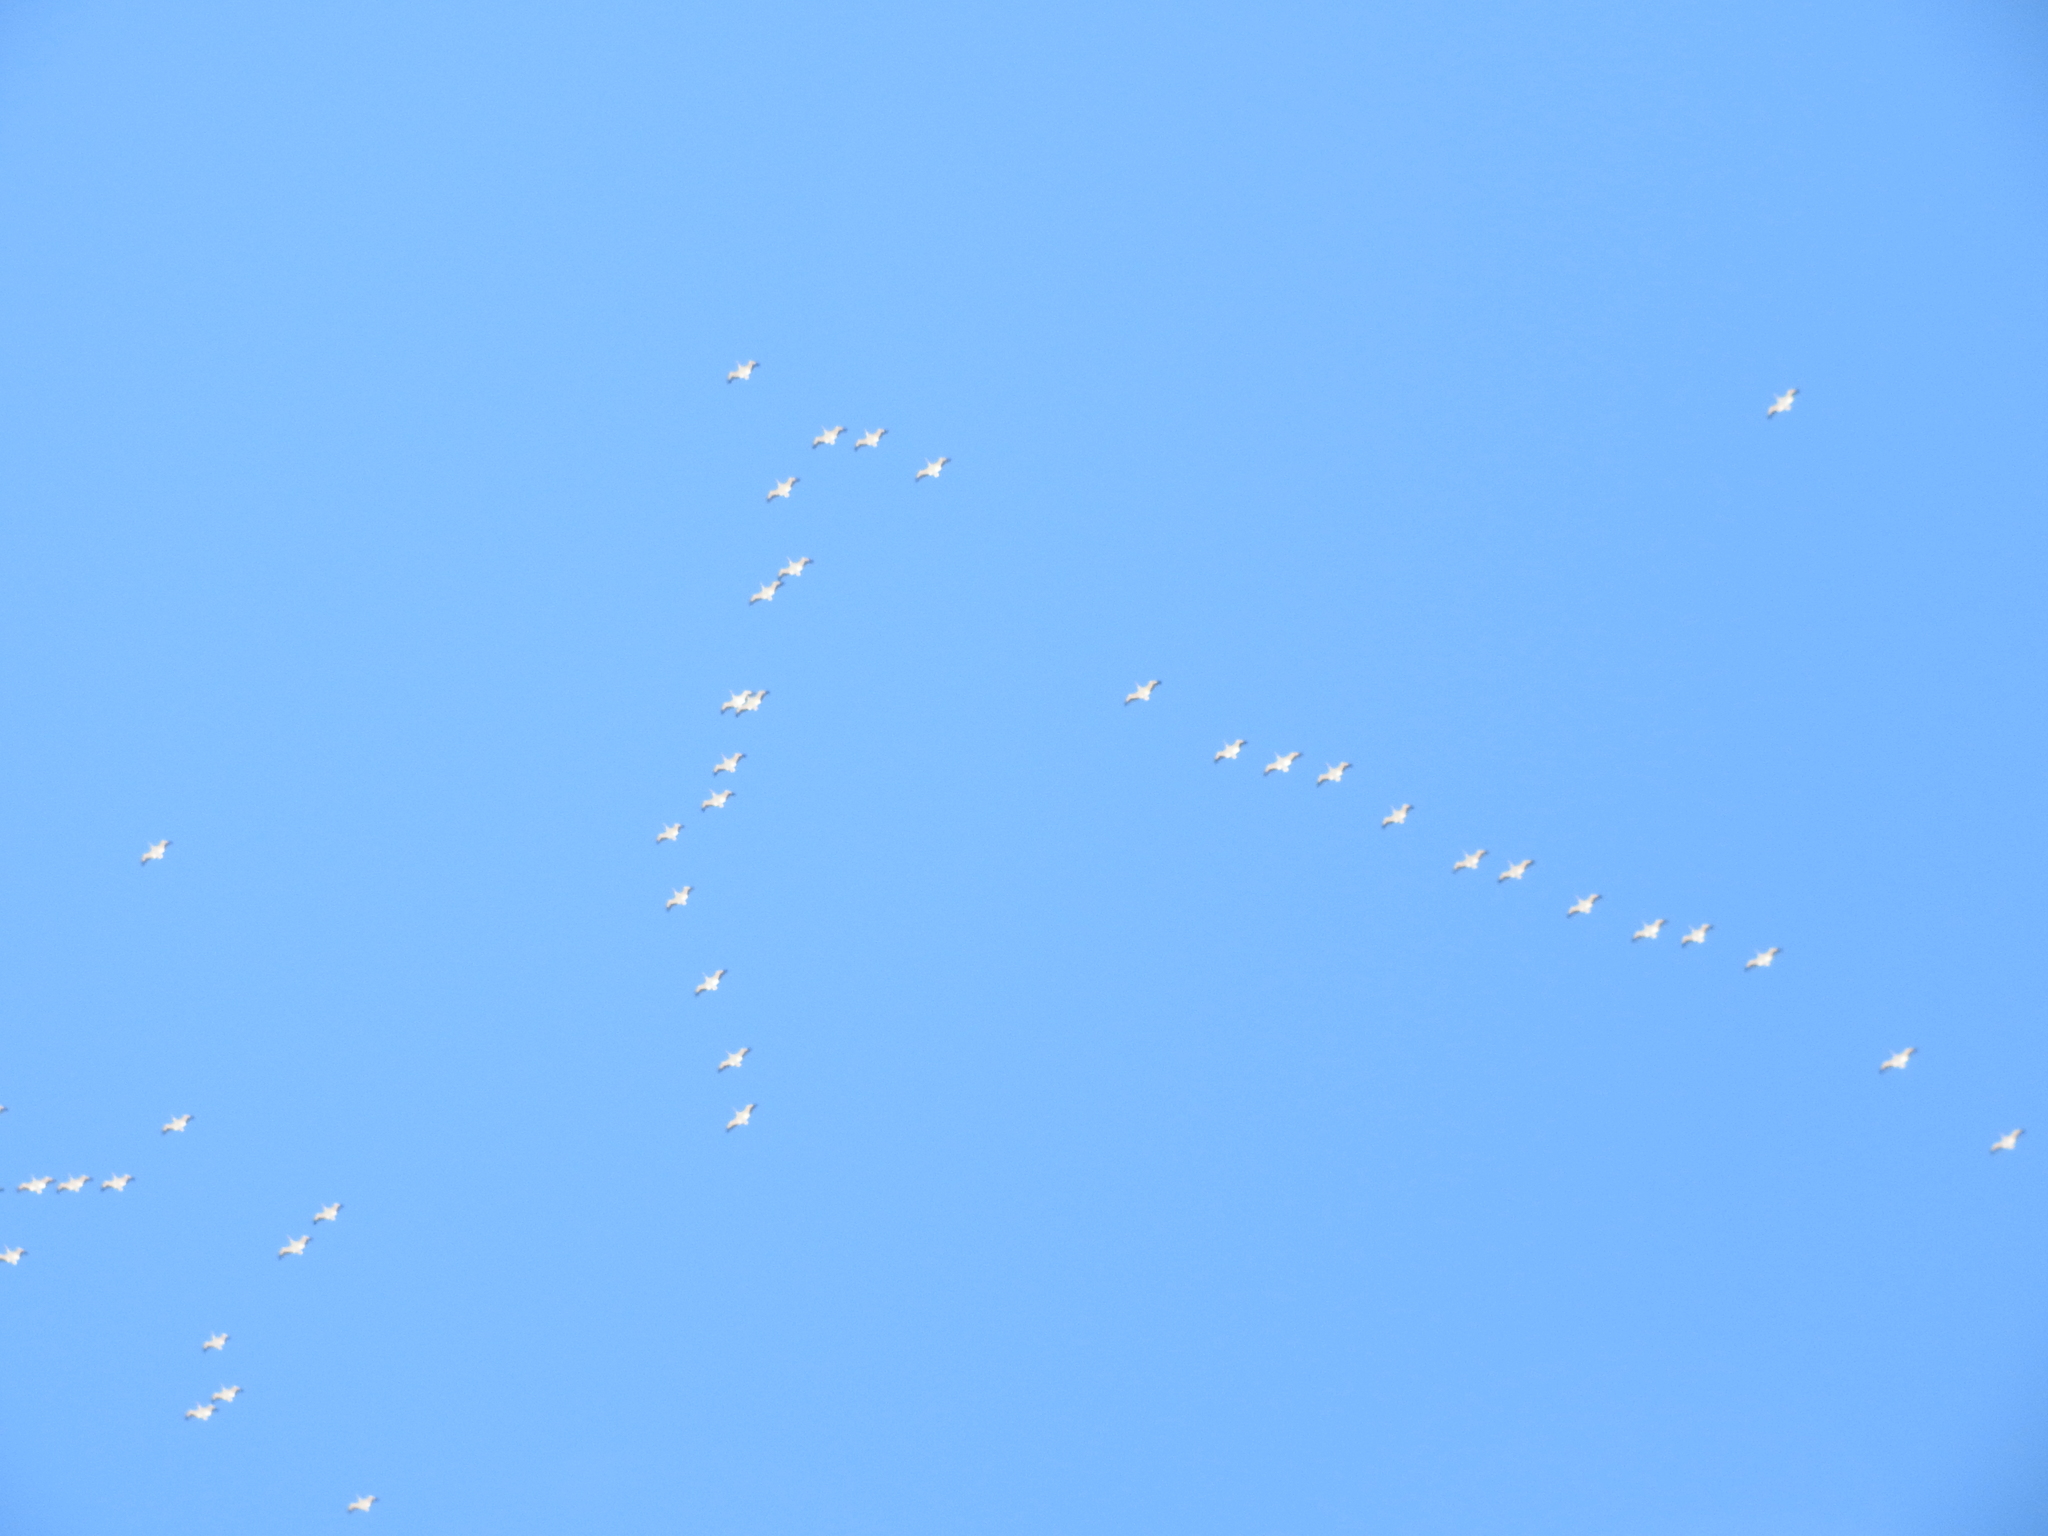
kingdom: Animalia
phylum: Chordata
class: Aves
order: Pelecaniformes
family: Pelecanidae
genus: Pelecanus
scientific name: Pelecanus erythrorhynchos
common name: American white pelican
